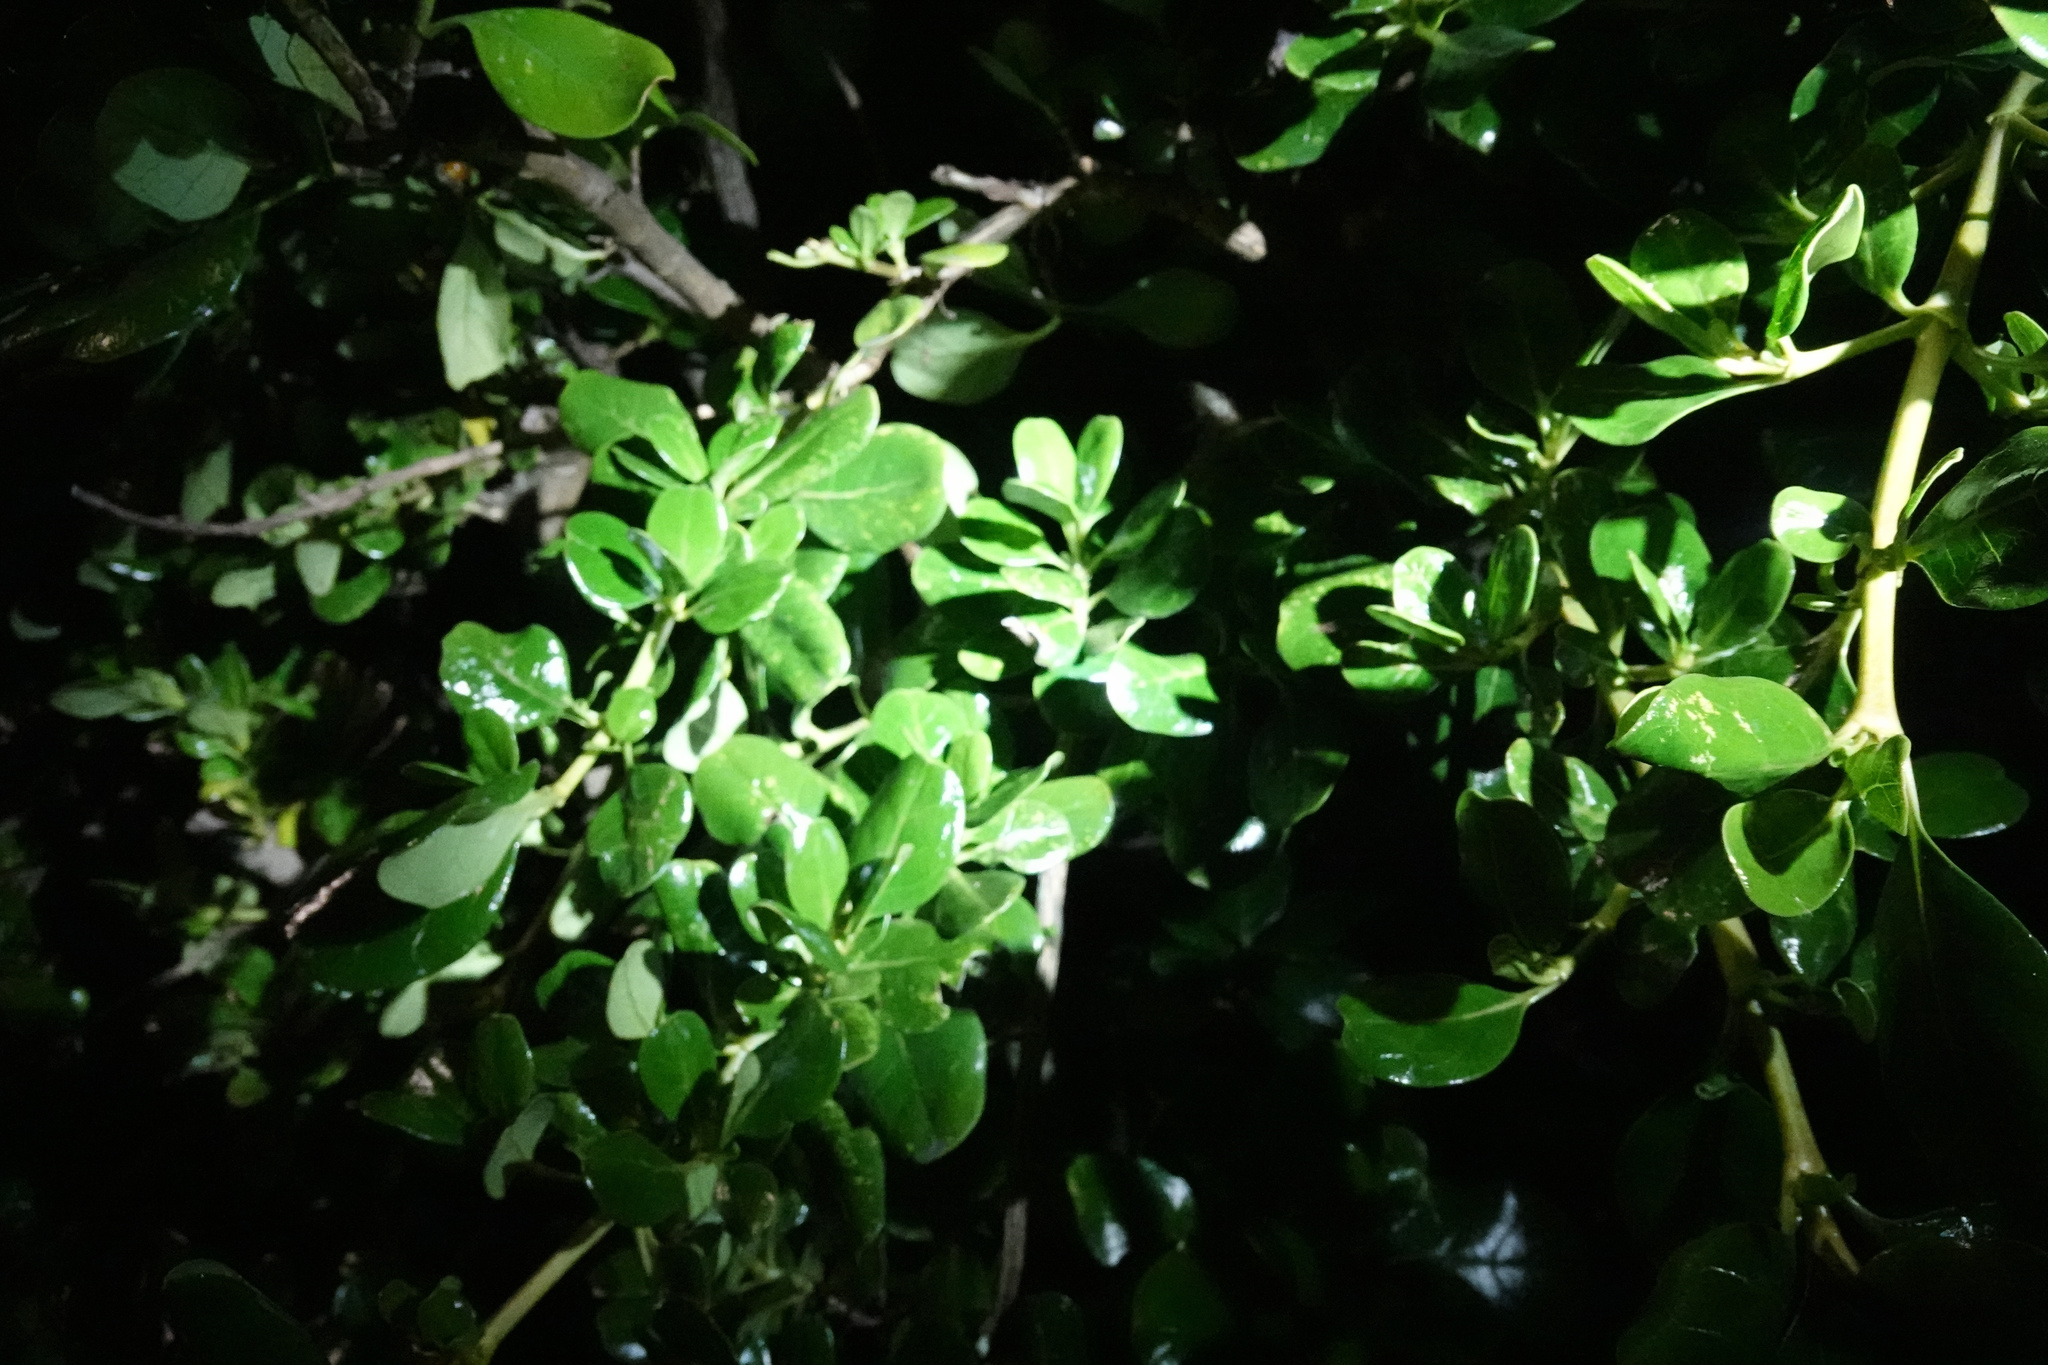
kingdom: Plantae
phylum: Tracheophyta
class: Magnoliopsida
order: Gentianales
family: Rubiaceae
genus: Coprosma
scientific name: Coprosma repens
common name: Tree bedstraw
